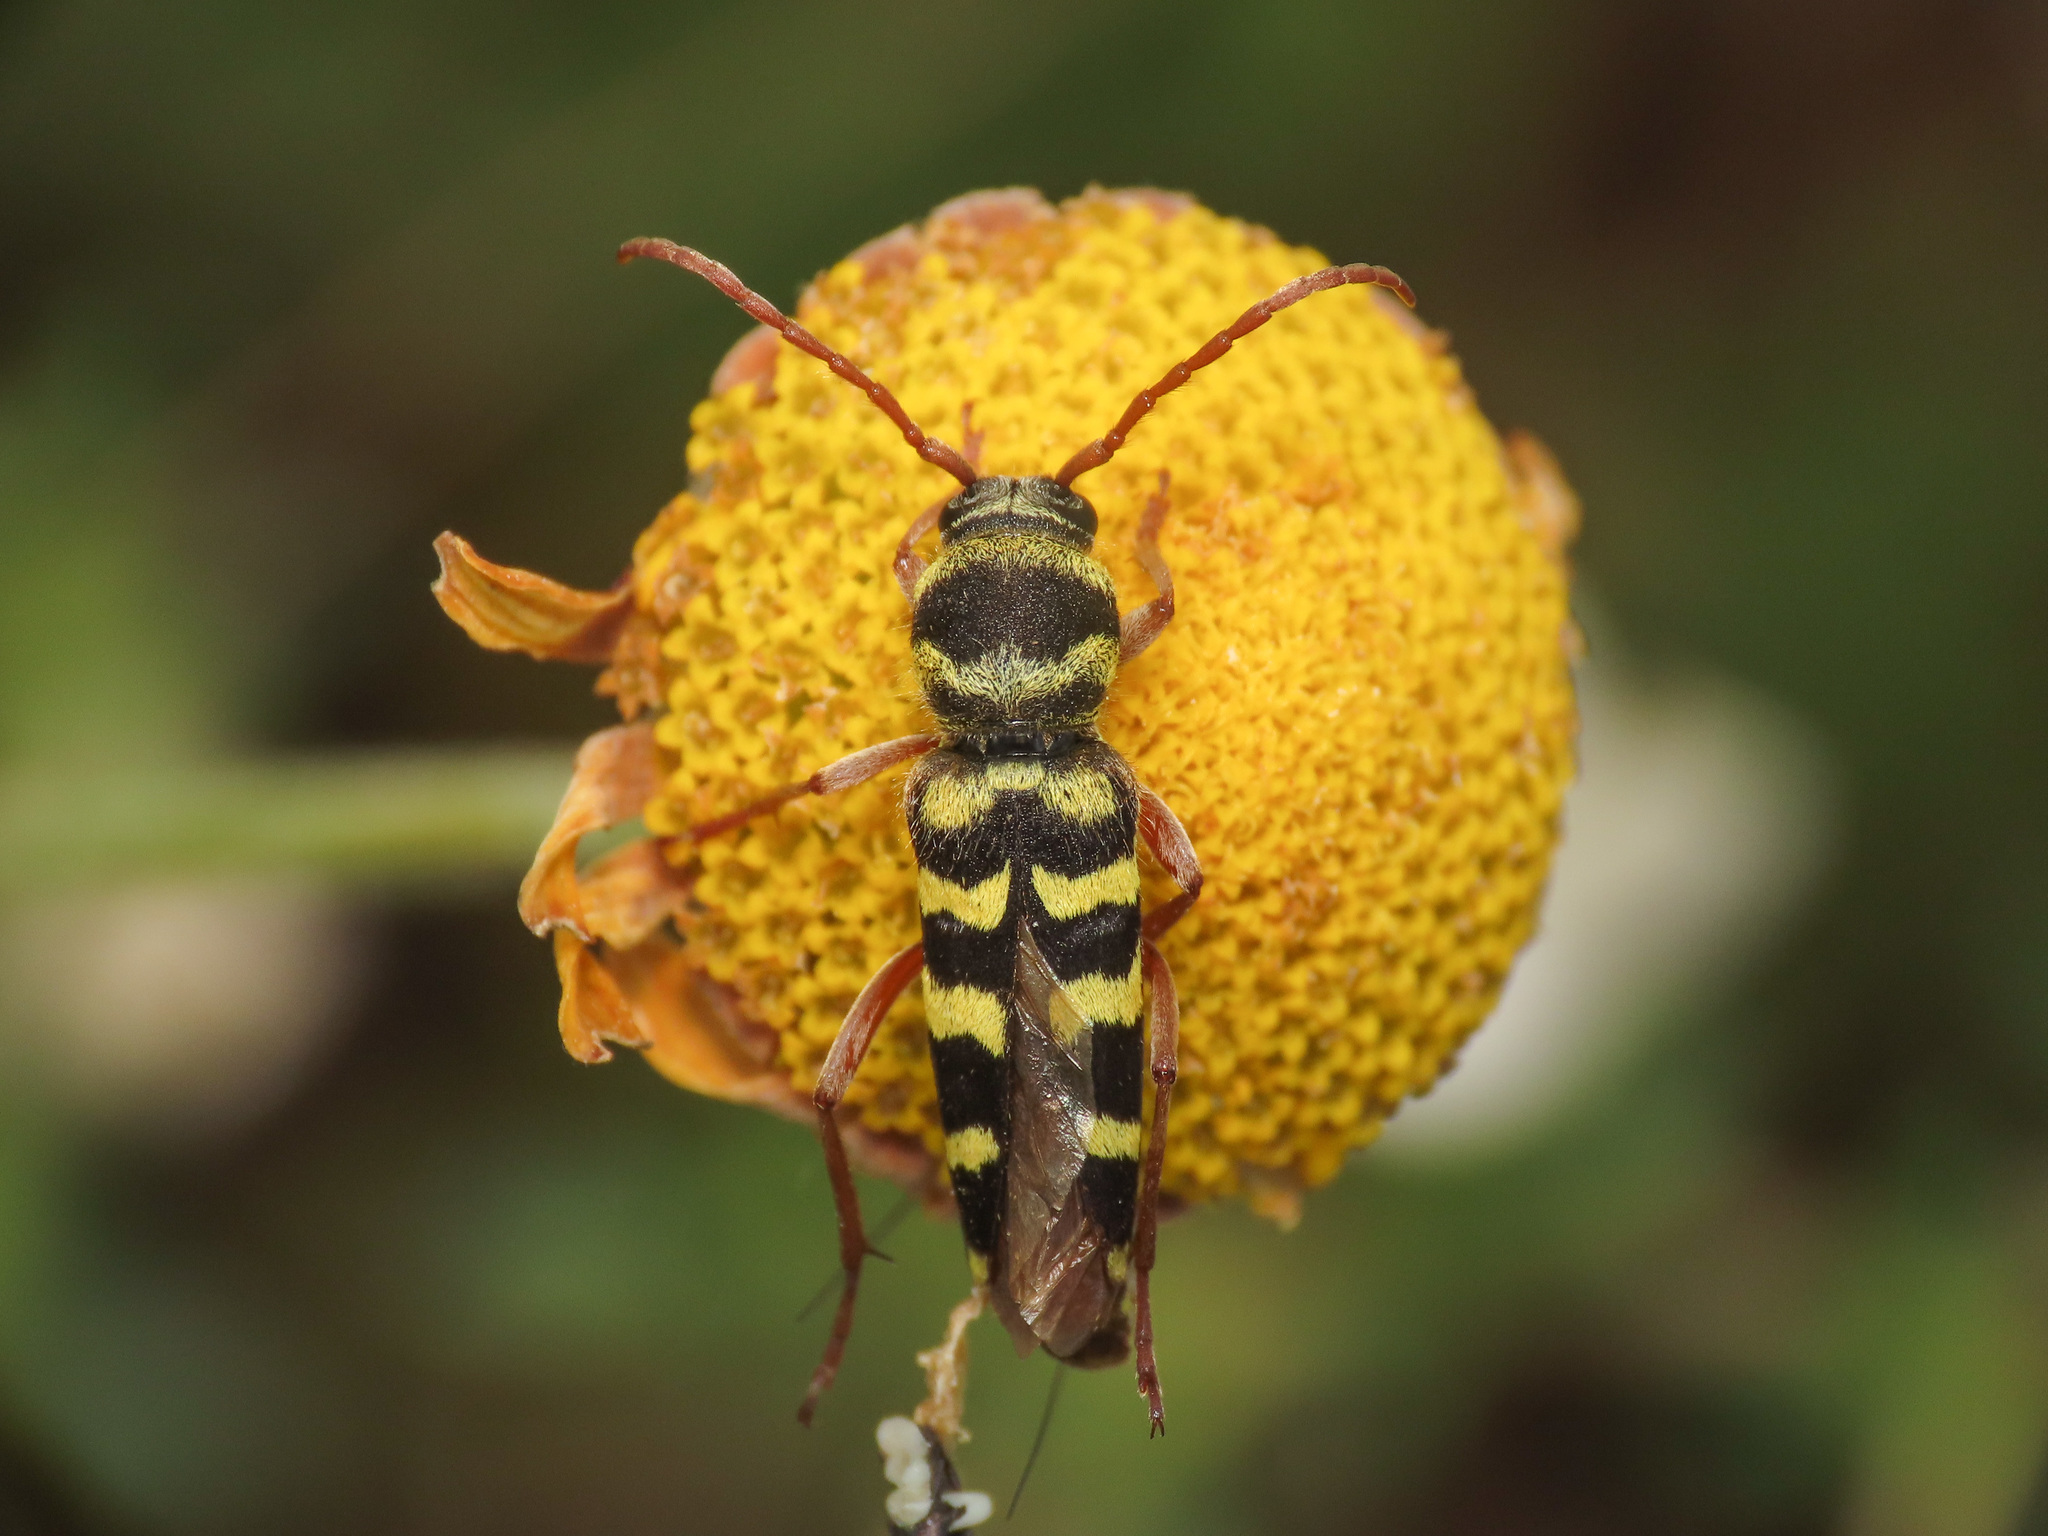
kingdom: Animalia
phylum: Arthropoda
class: Insecta
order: Coleoptera
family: Cerambycidae
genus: Plagionotus
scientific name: Plagionotus floralis
